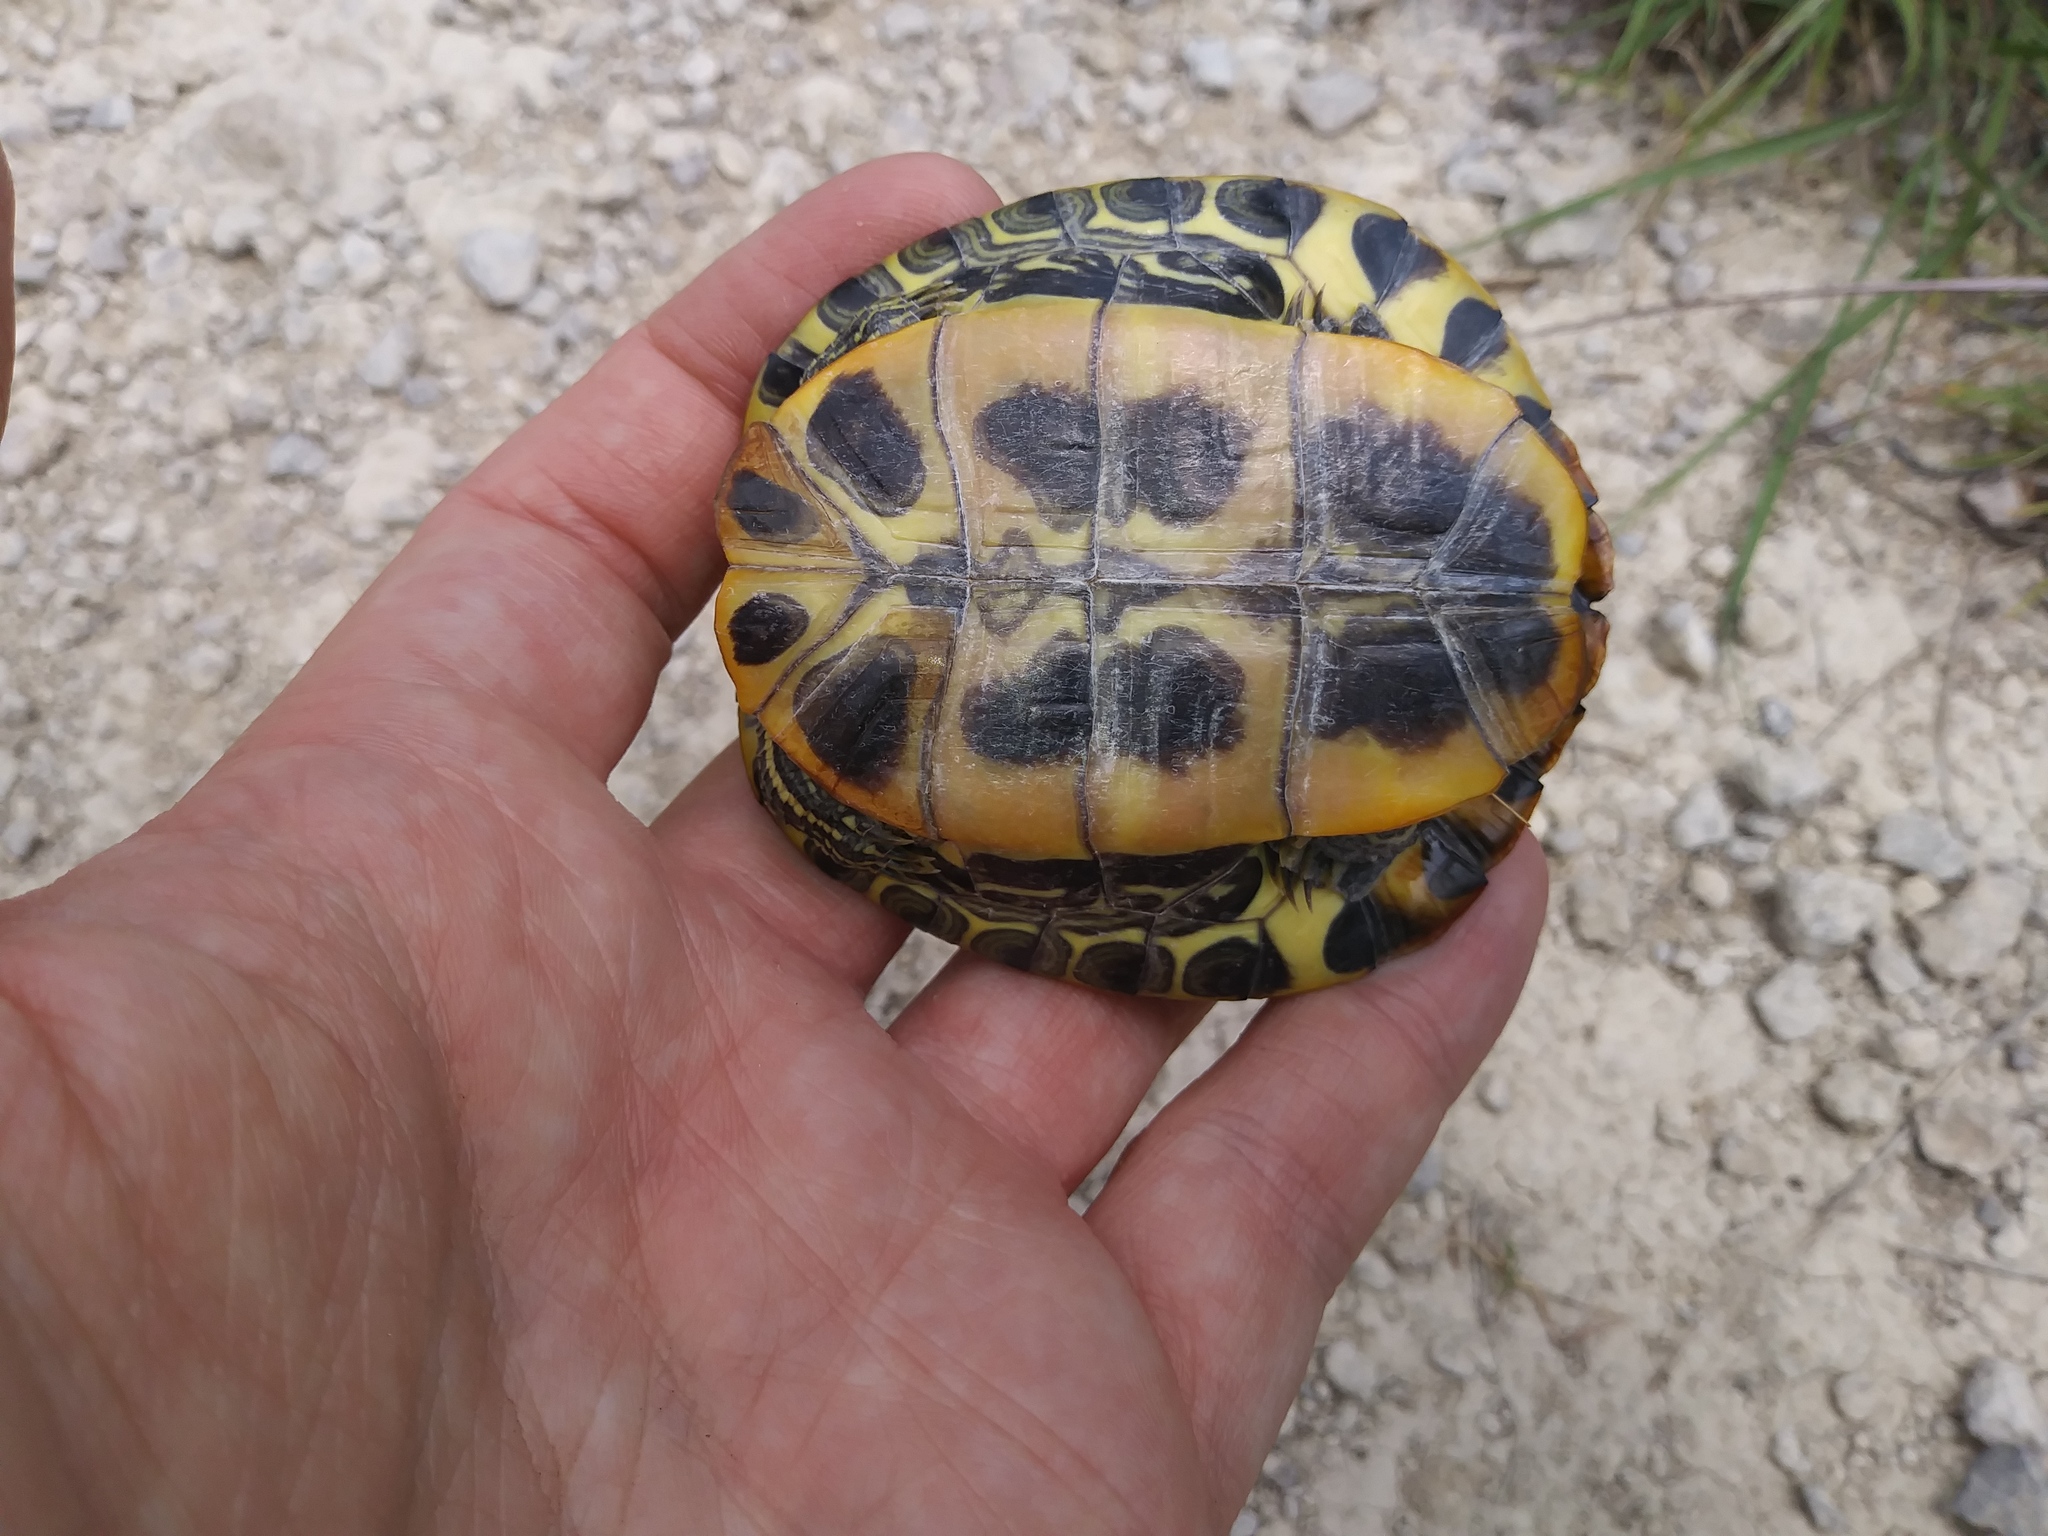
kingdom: Animalia
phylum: Chordata
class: Testudines
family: Emydidae
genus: Trachemys
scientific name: Trachemys scripta
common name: Slider
